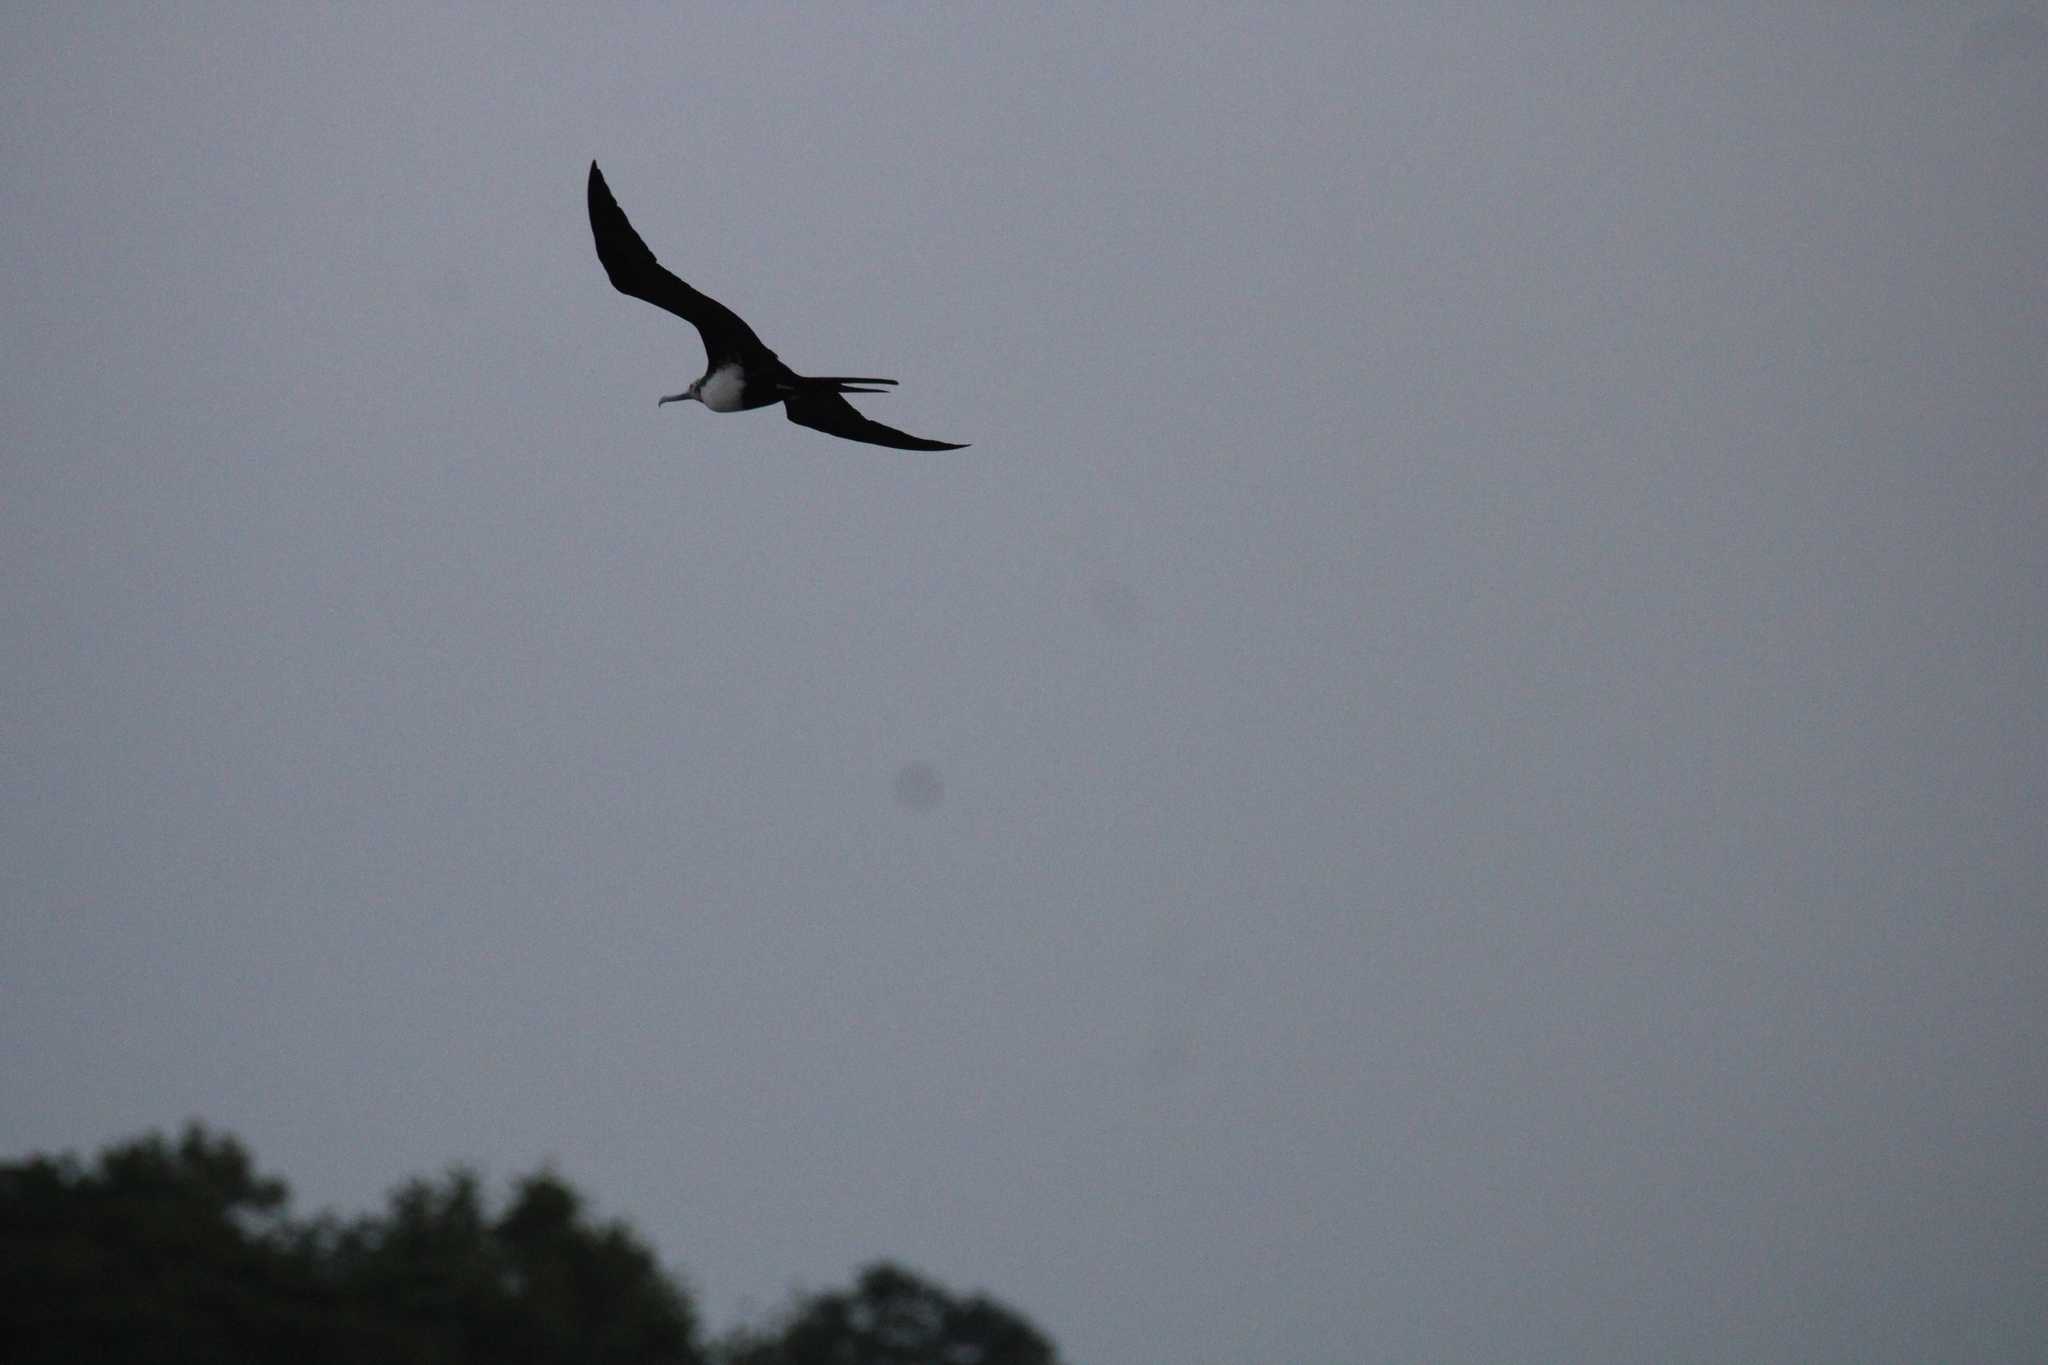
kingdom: Animalia
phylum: Chordata
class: Aves
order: Suliformes
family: Fregatidae
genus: Fregata
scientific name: Fregata minor
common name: Great frigatebird
